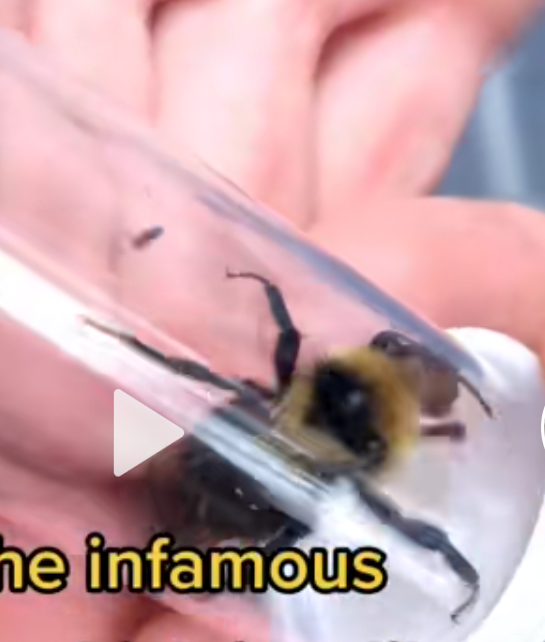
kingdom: Animalia
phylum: Arthropoda
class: Insecta
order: Hymenoptera
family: Apidae
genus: Bombus
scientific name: Bombus insularis
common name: Indiscriminate cuckoo bumble bee
